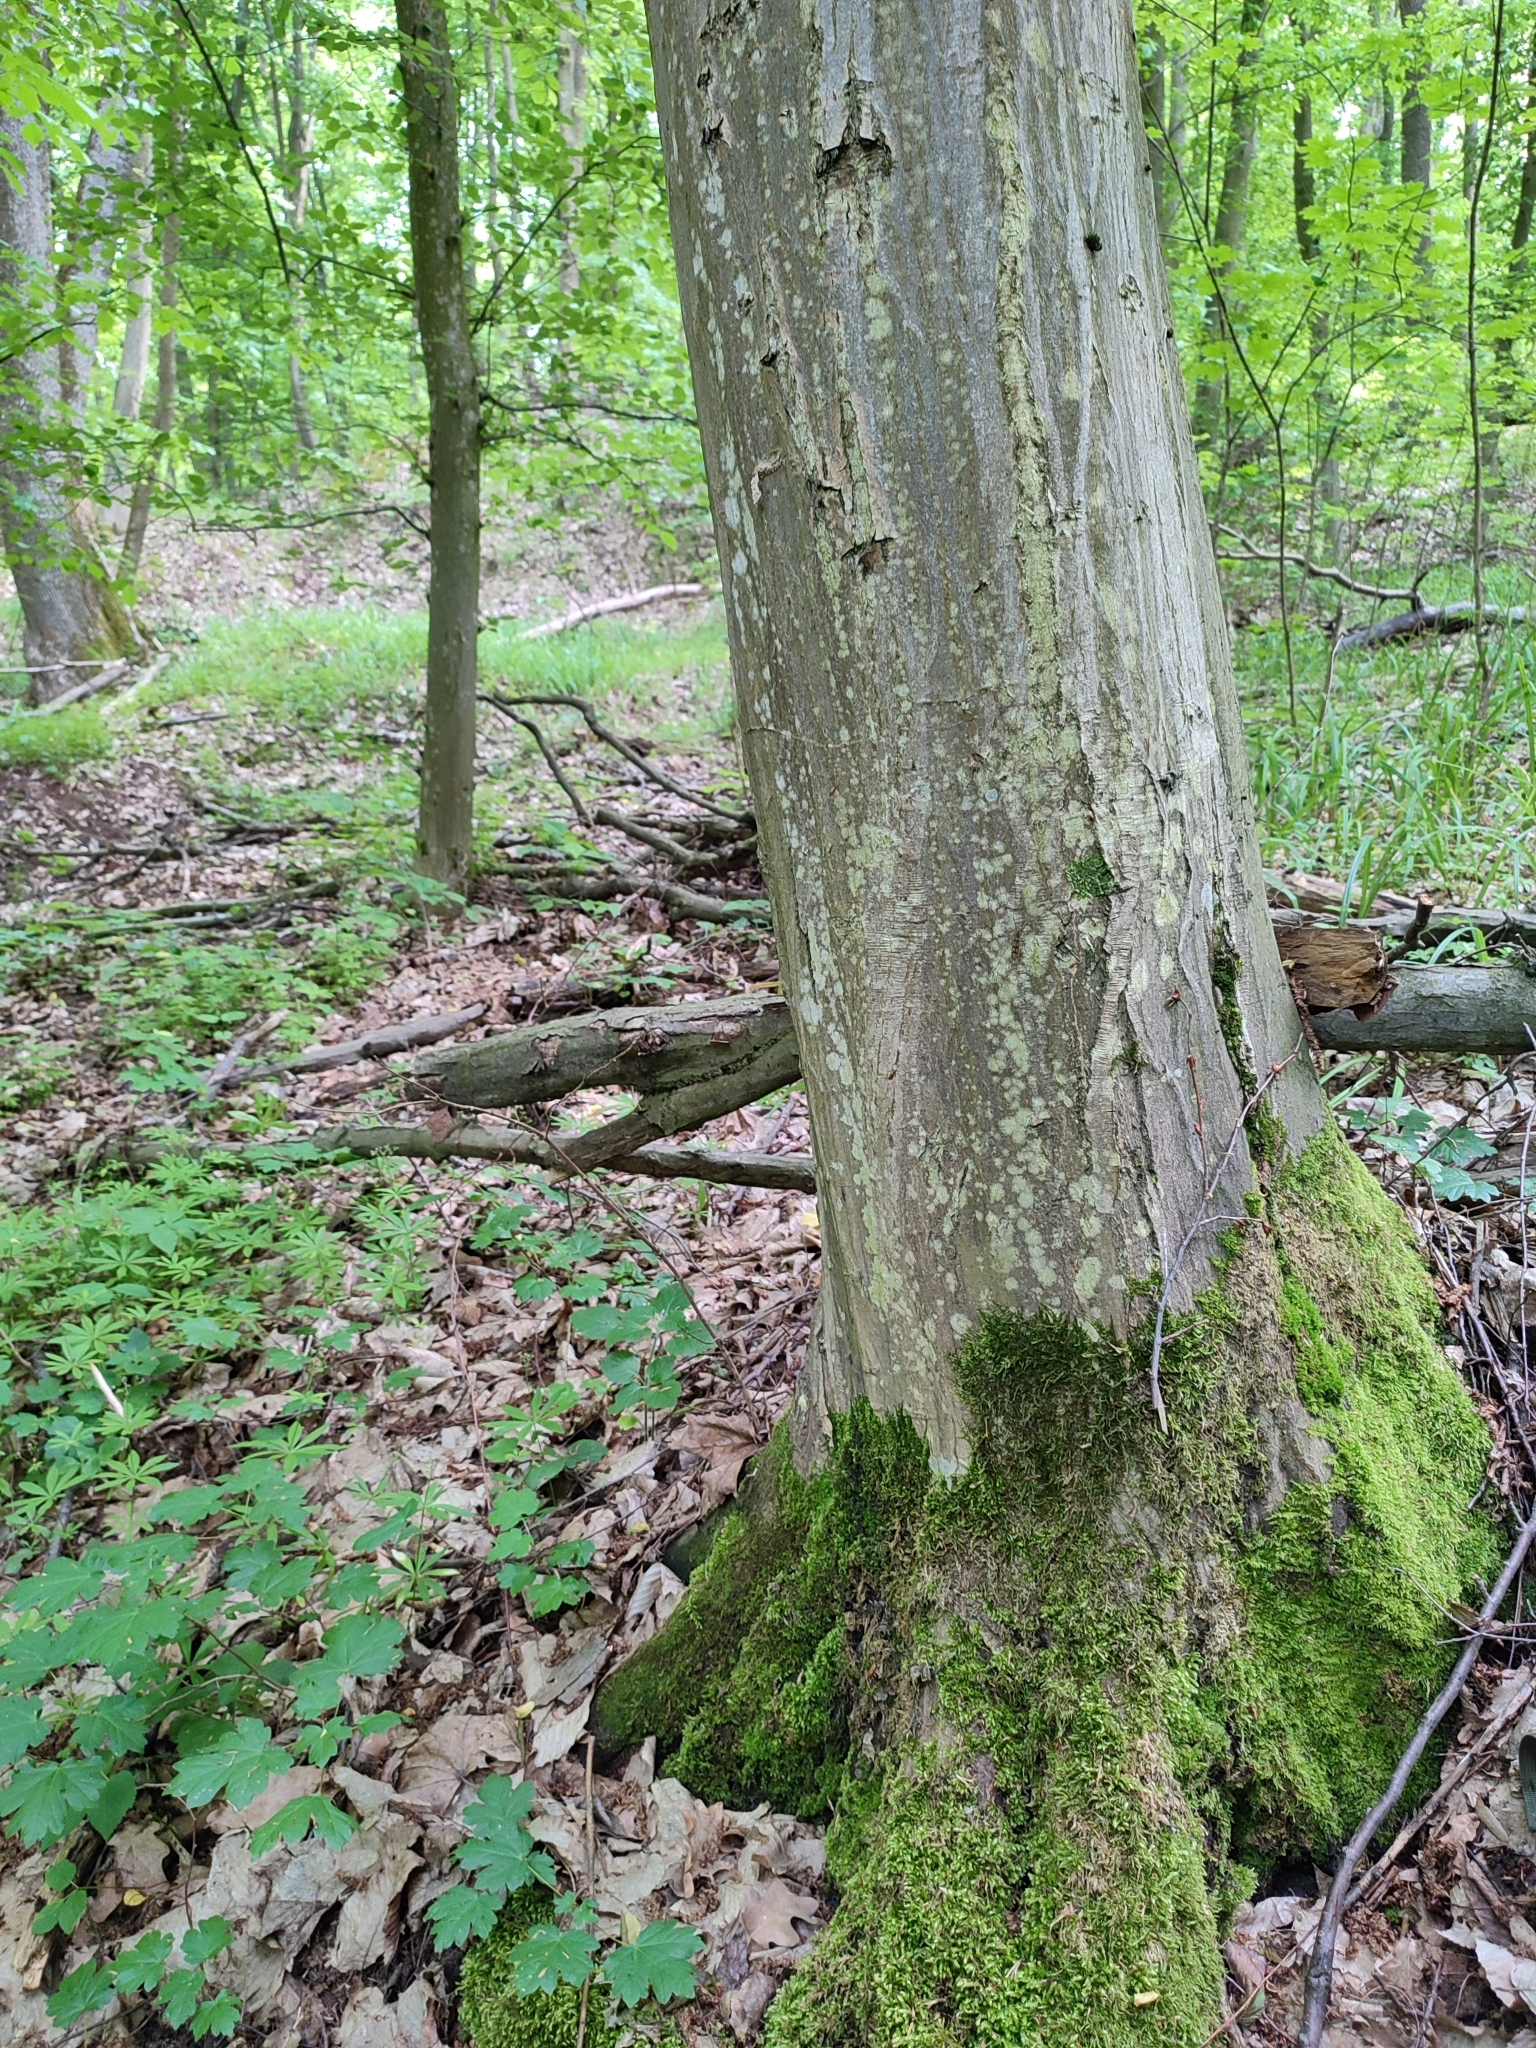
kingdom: Plantae
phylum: Tracheophyta
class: Magnoliopsida
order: Fagales
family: Betulaceae
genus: Carpinus
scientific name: Carpinus betulus
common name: Hornbeam
